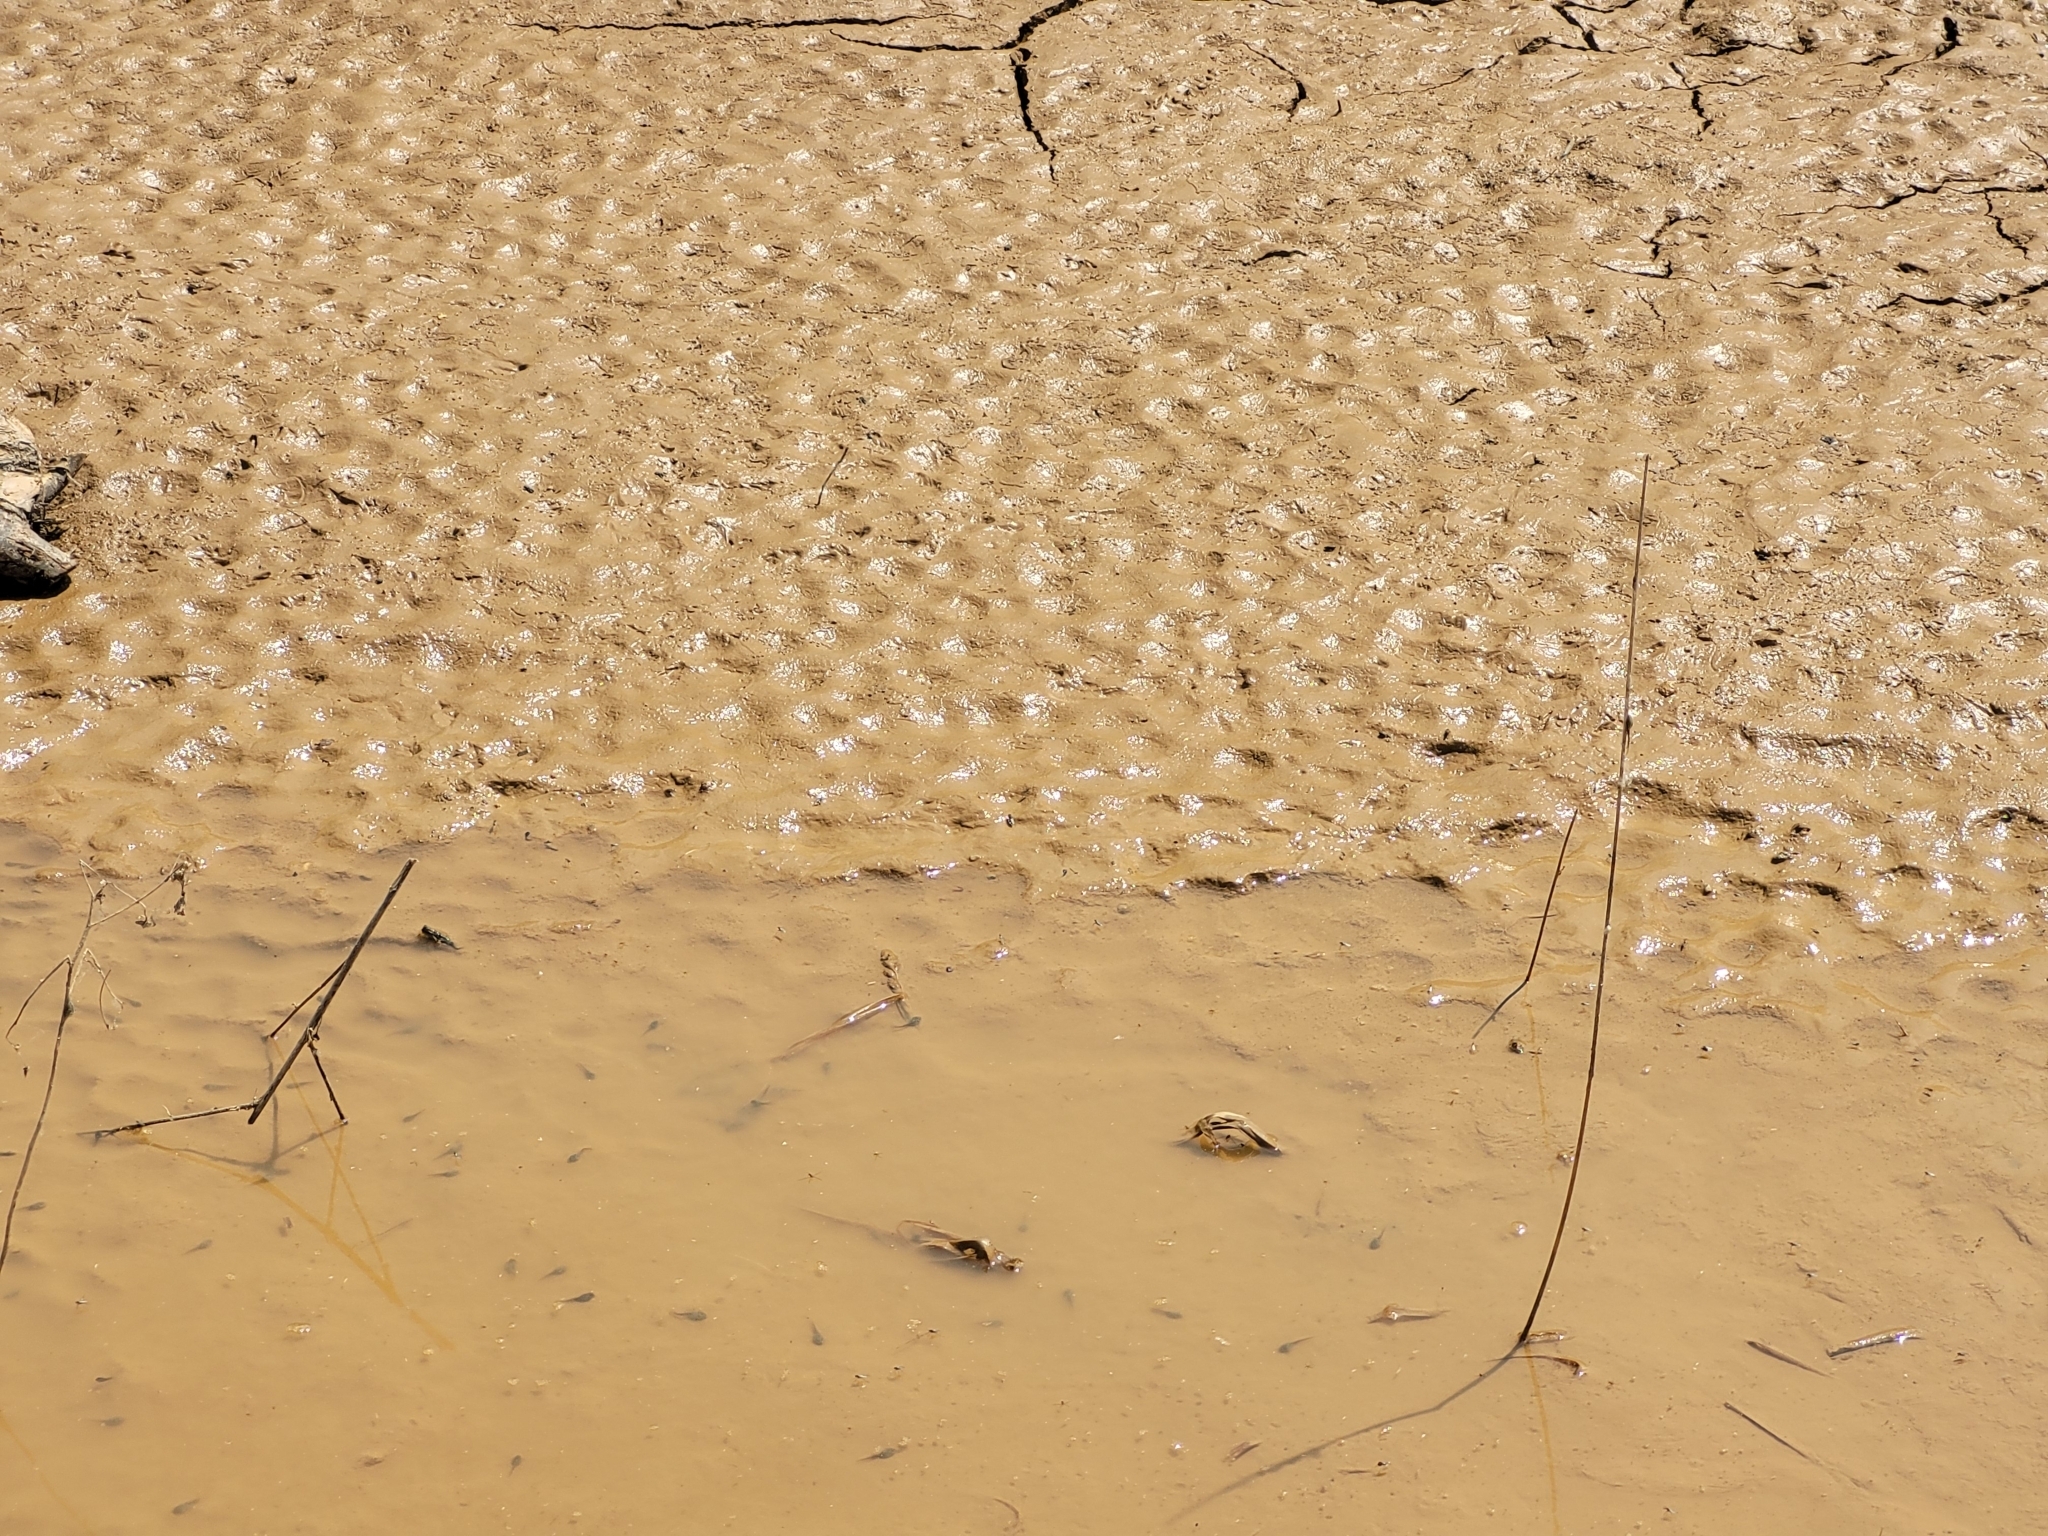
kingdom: Animalia
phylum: Chordata
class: Amphibia
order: Anura
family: Bufonidae
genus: Epidalea
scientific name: Epidalea calamita
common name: Natterjack toad
